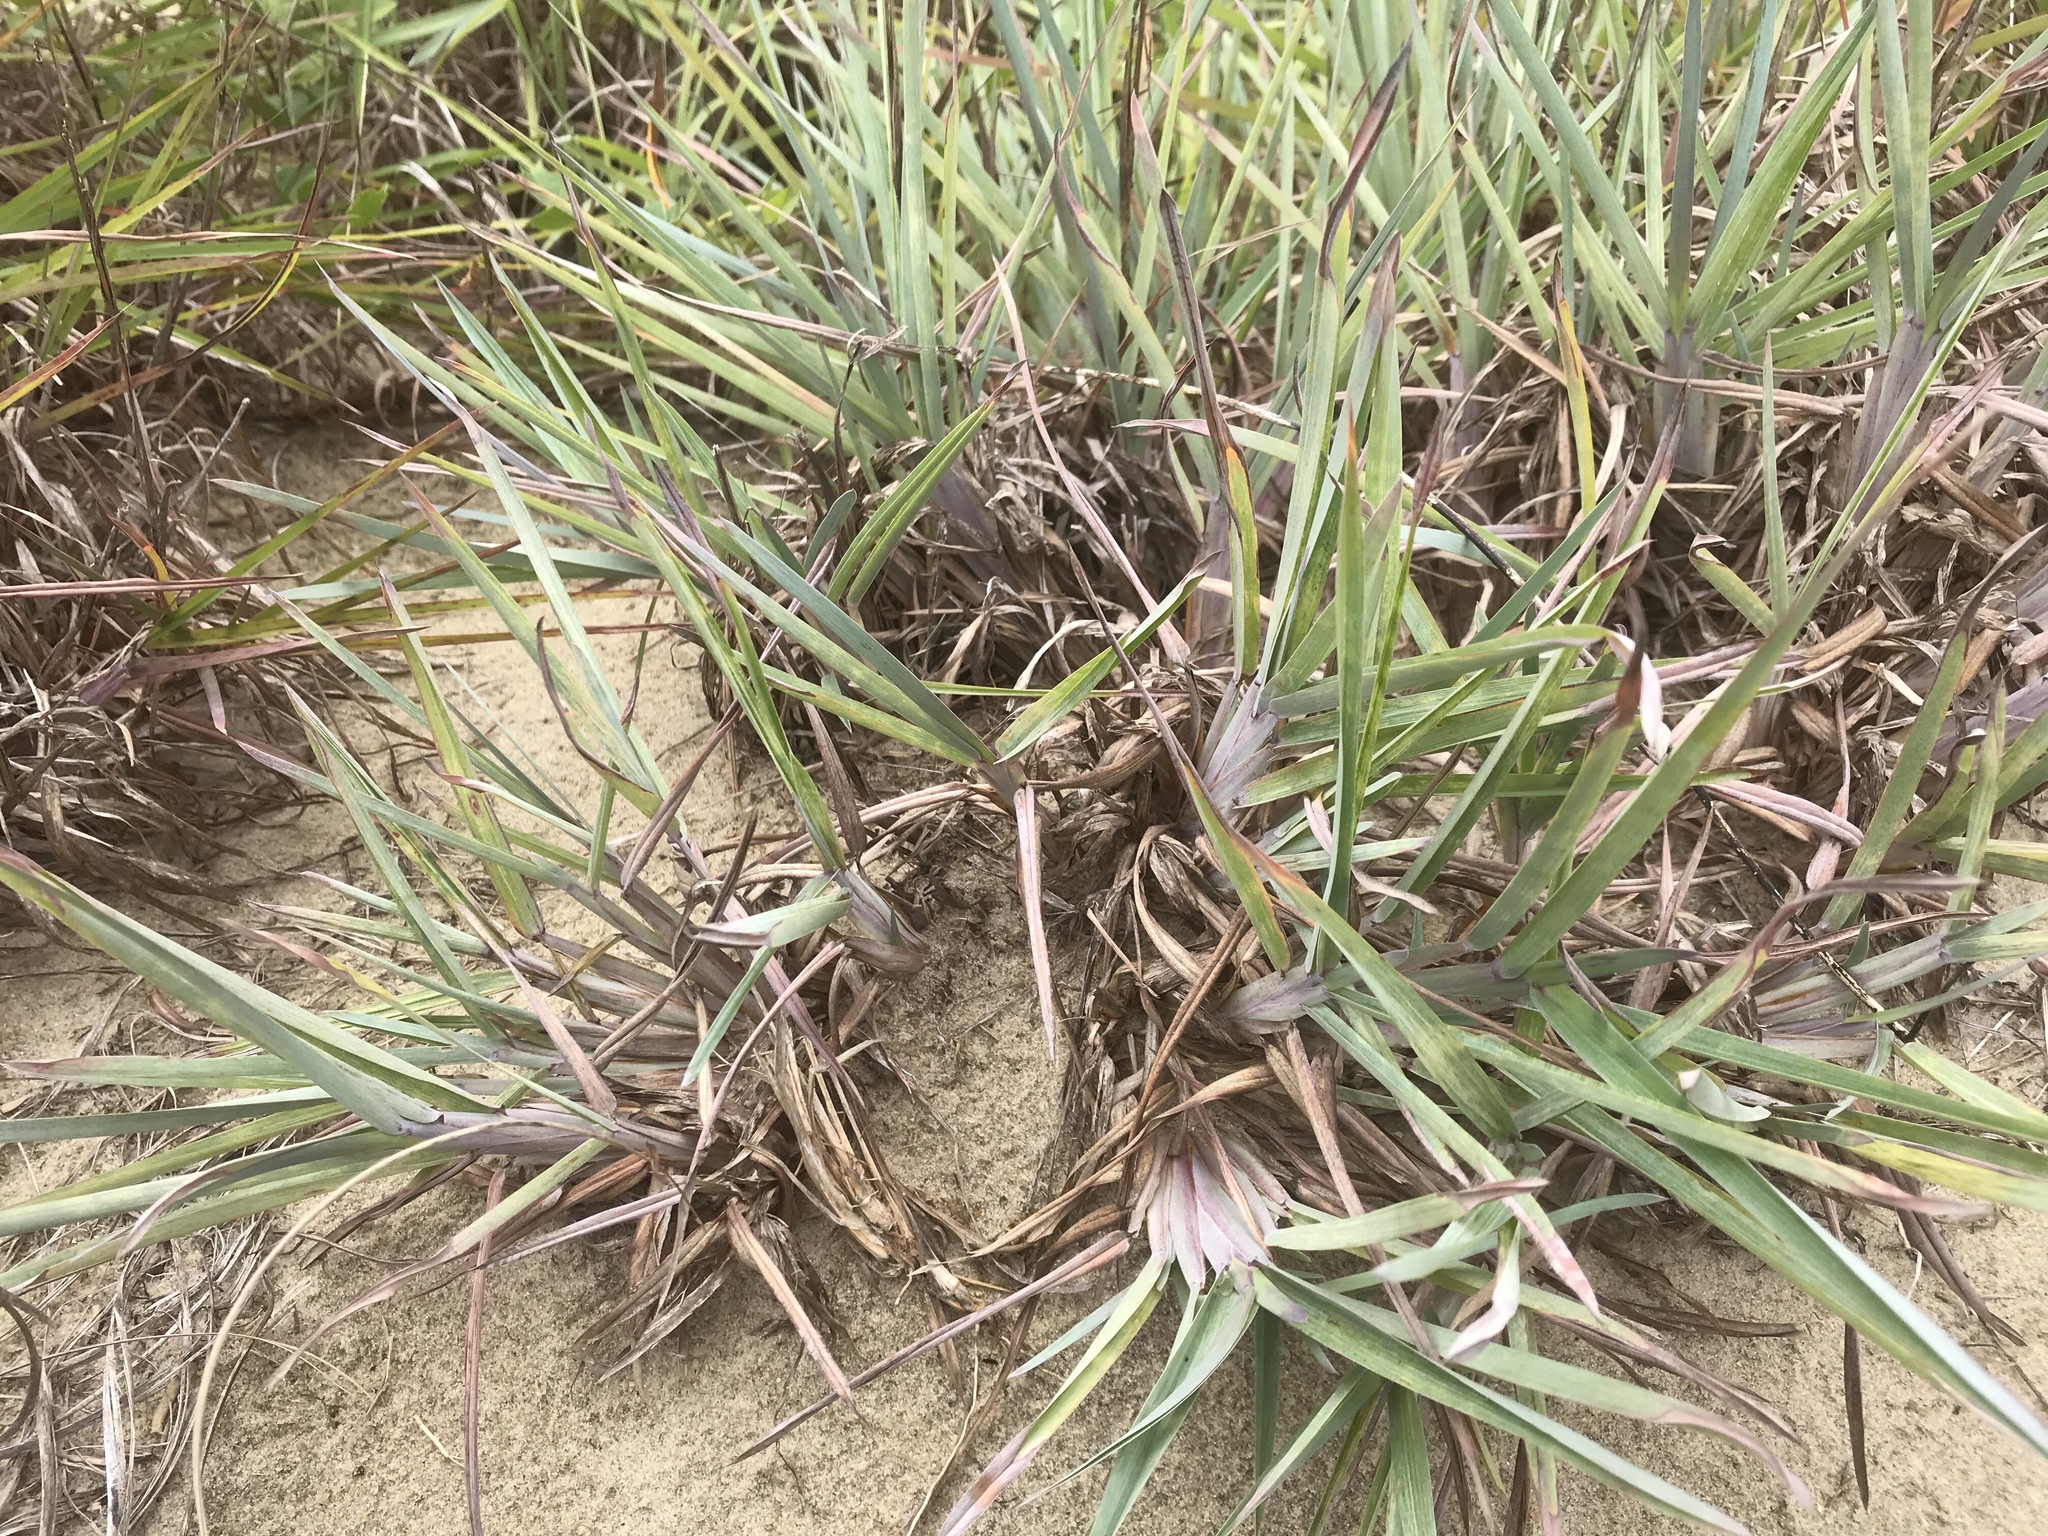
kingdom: Plantae
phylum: Tracheophyta
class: Liliopsida
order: Poales
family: Poaceae
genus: Schizachyrium
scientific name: Schizachyrium scoparium
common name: Little bluestem
